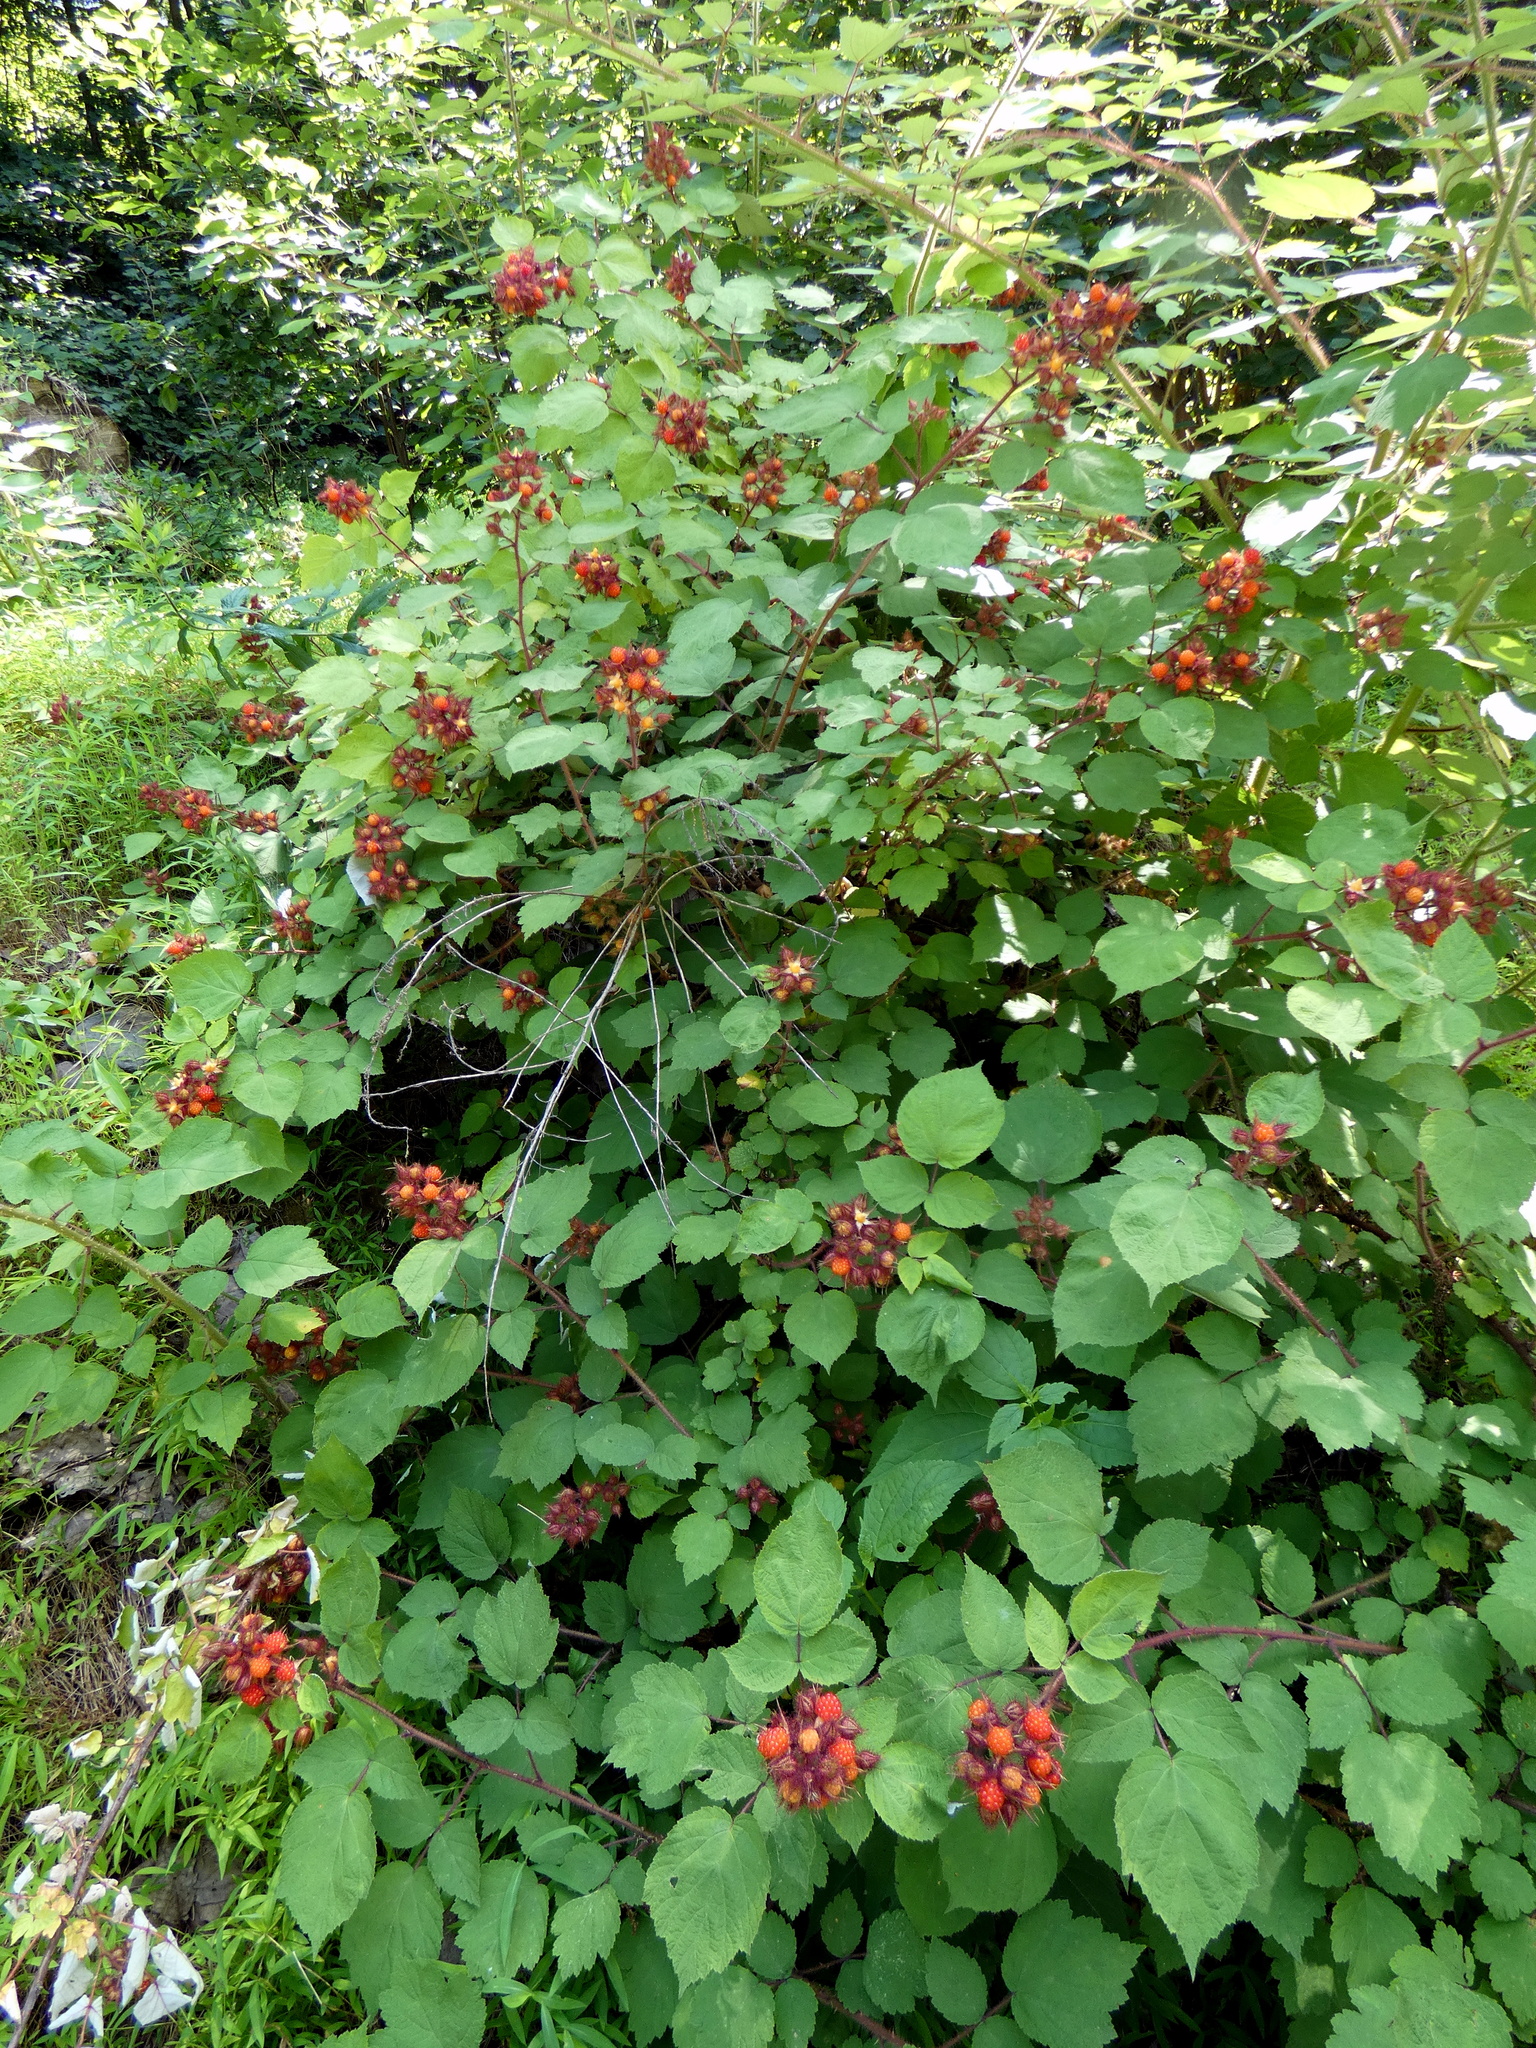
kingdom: Plantae
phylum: Tracheophyta
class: Magnoliopsida
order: Rosales
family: Rosaceae
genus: Rubus
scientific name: Rubus phoenicolasius
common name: Japanese wineberry
